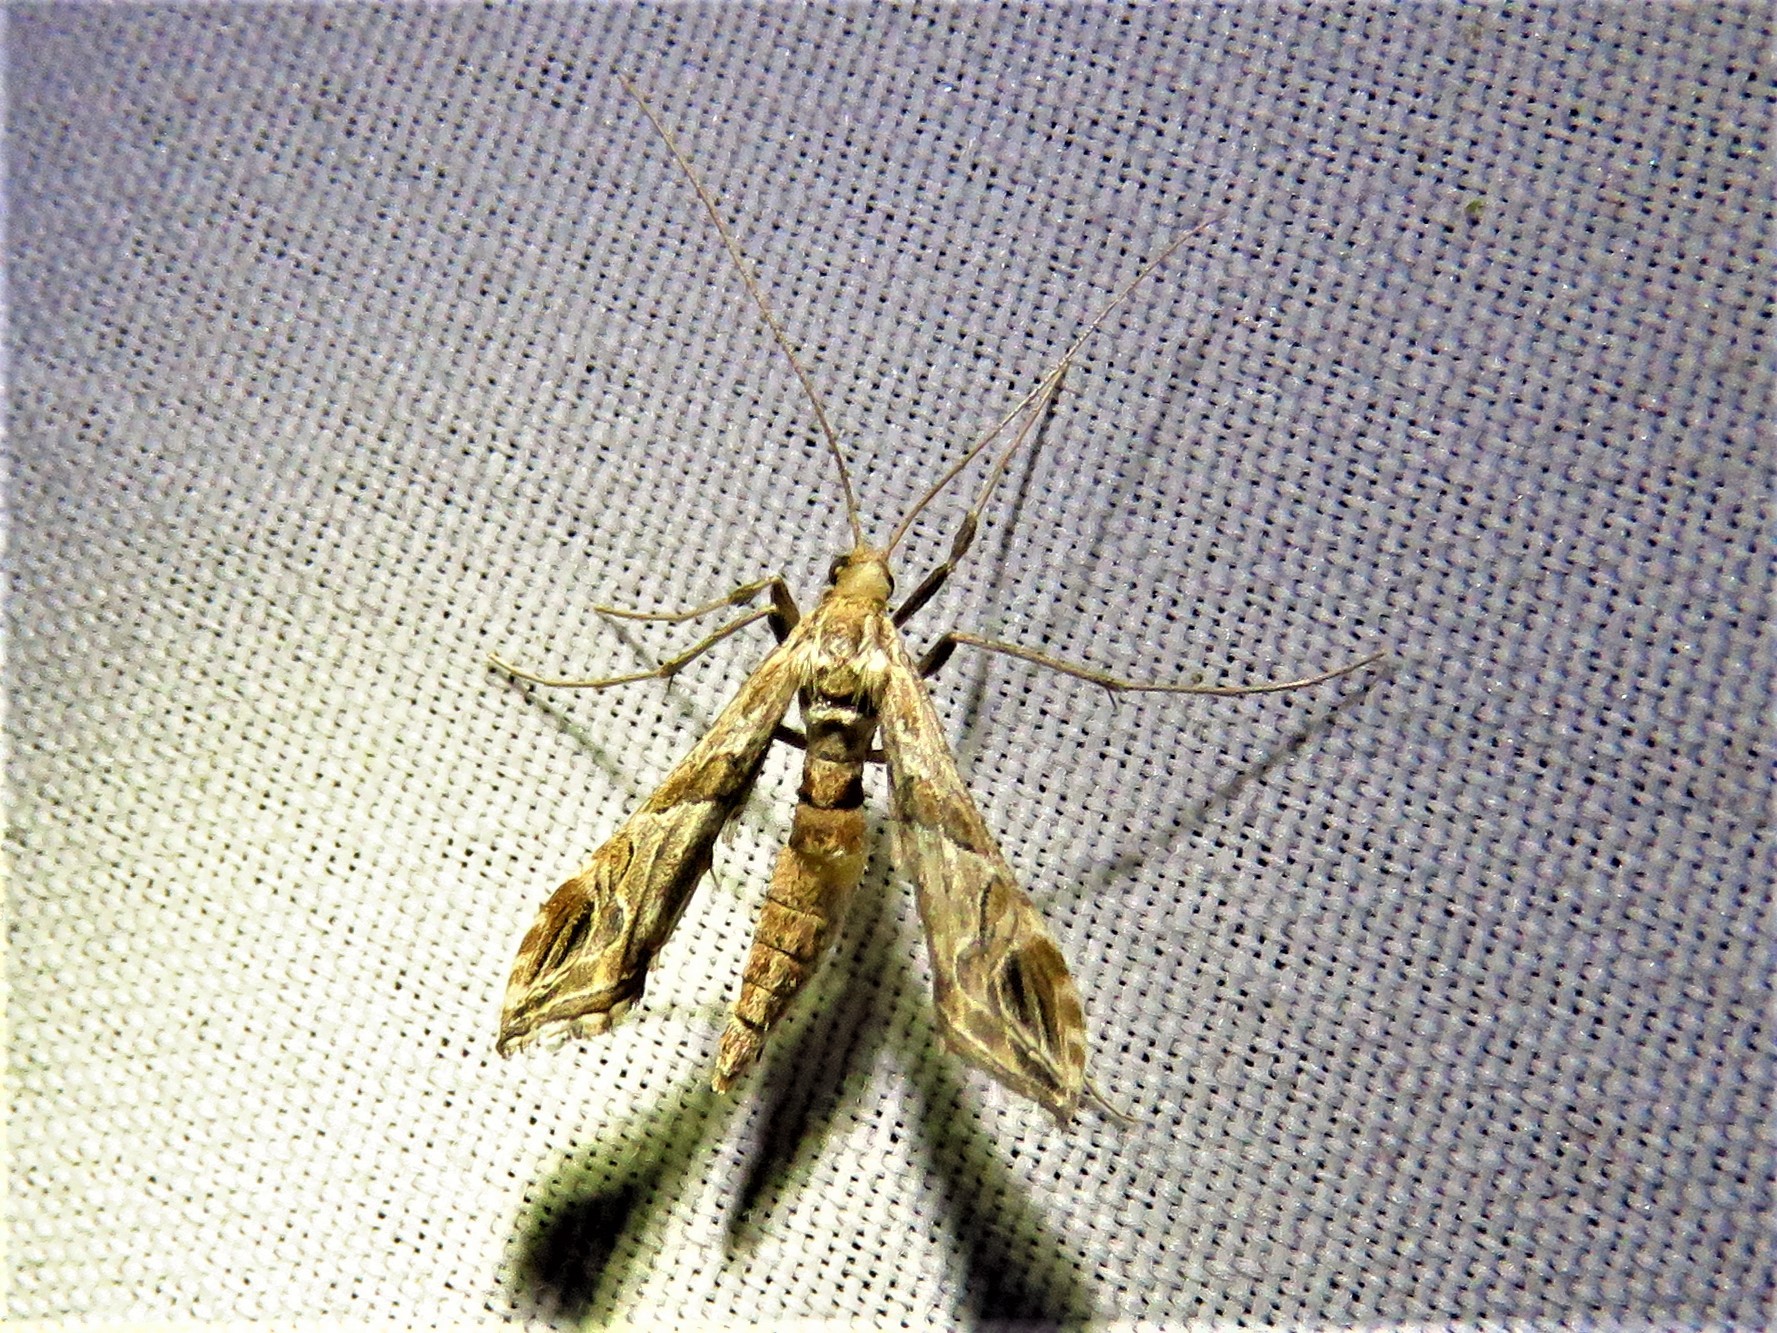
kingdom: Animalia
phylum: Arthropoda
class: Insecta
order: Lepidoptera
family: Crambidae
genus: Lineodes
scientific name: Lineodes interrupta
